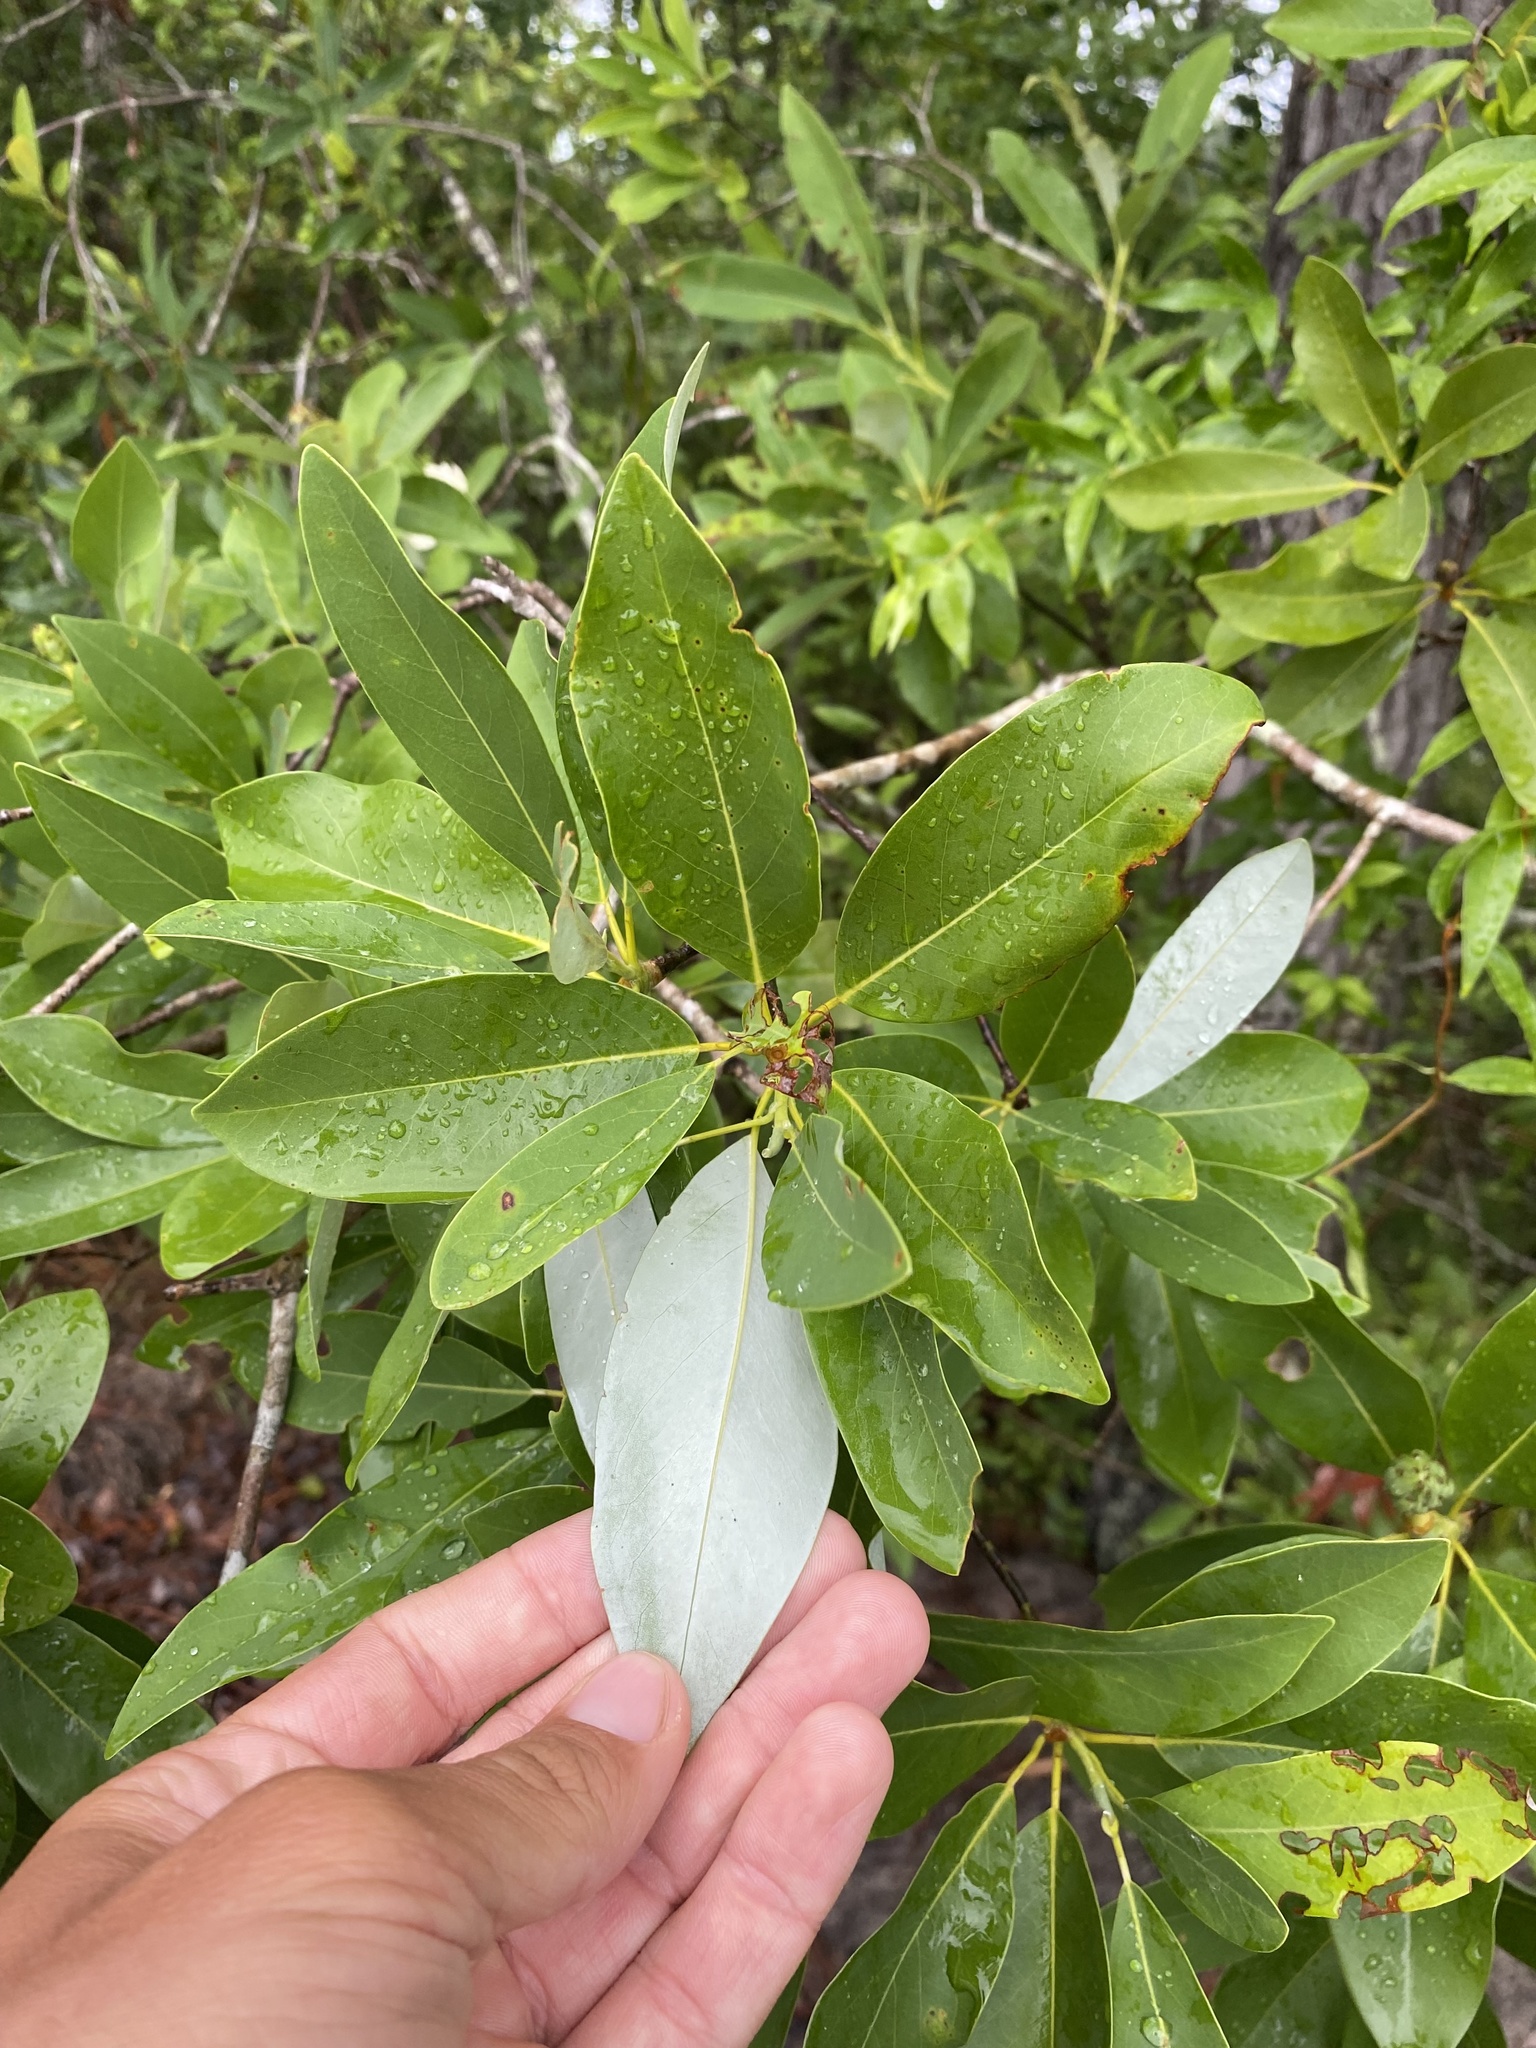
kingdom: Plantae
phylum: Tracheophyta
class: Magnoliopsida
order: Magnoliales
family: Magnoliaceae
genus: Magnolia
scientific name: Magnolia virginiana
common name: Swamp bay
